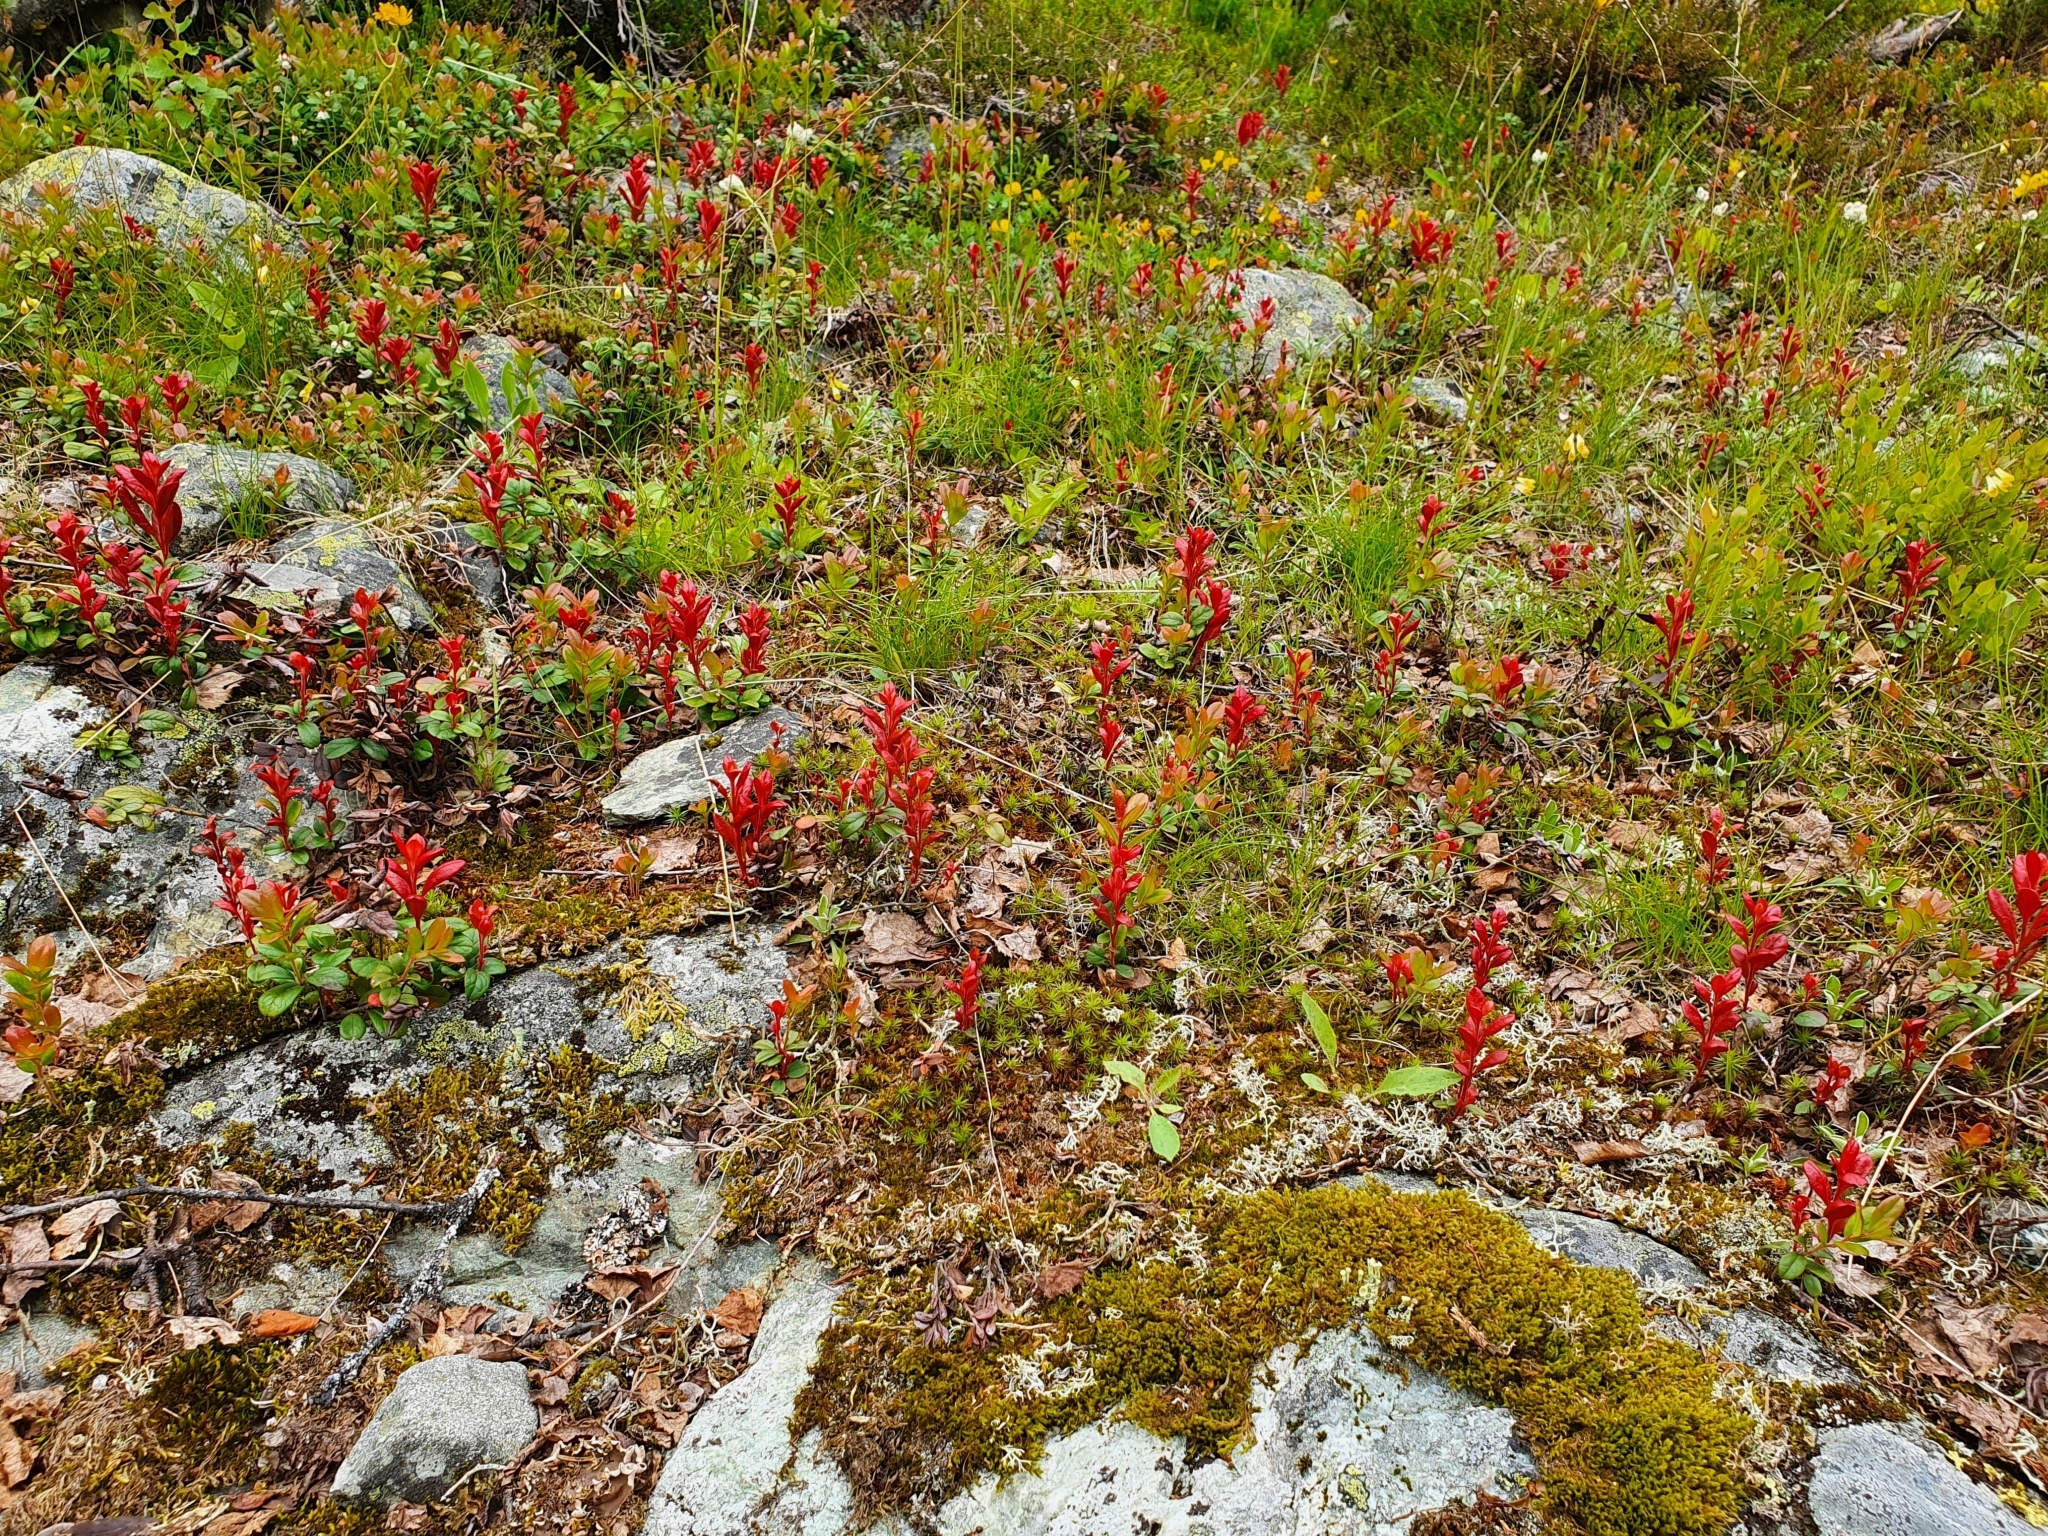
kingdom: Plantae
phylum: Tracheophyta
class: Magnoliopsida
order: Ericales
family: Ericaceae
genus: Vaccinium
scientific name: Vaccinium vitis-idaea
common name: Cowberry
